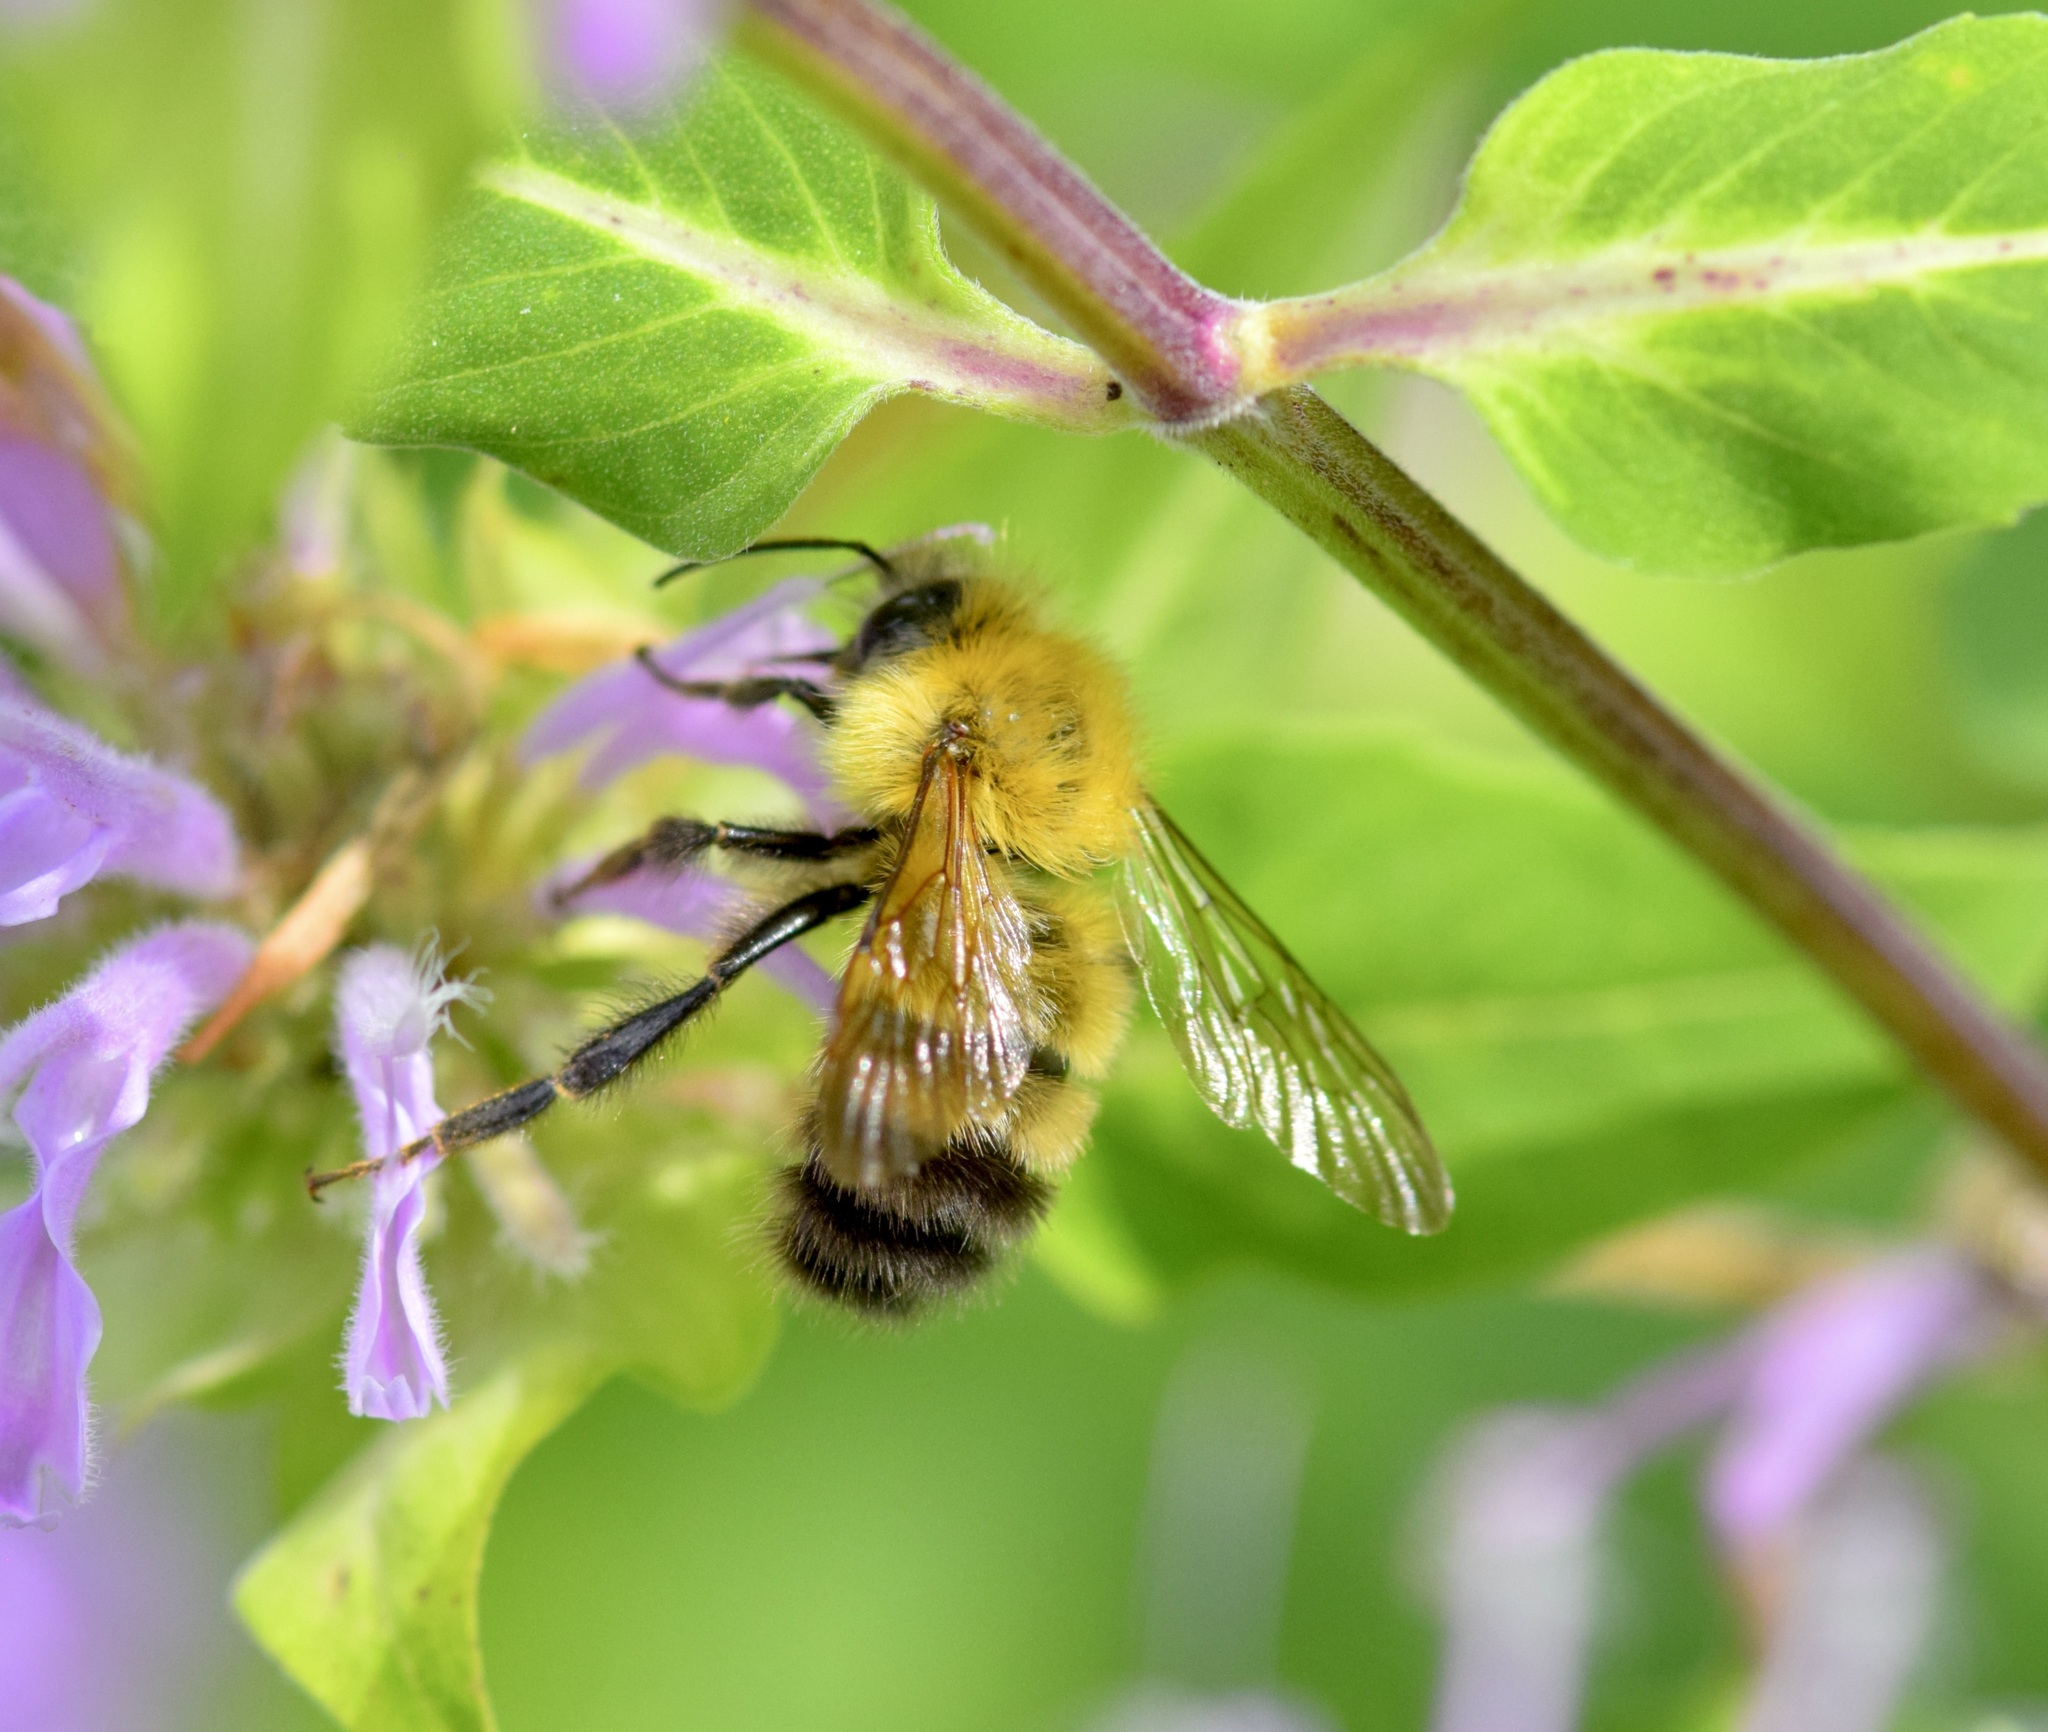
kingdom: Animalia
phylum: Arthropoda
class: Insecta
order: Hymenoptera
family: Apidae
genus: Bombus
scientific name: Bombus perplexus
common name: Confusing bumble bee
